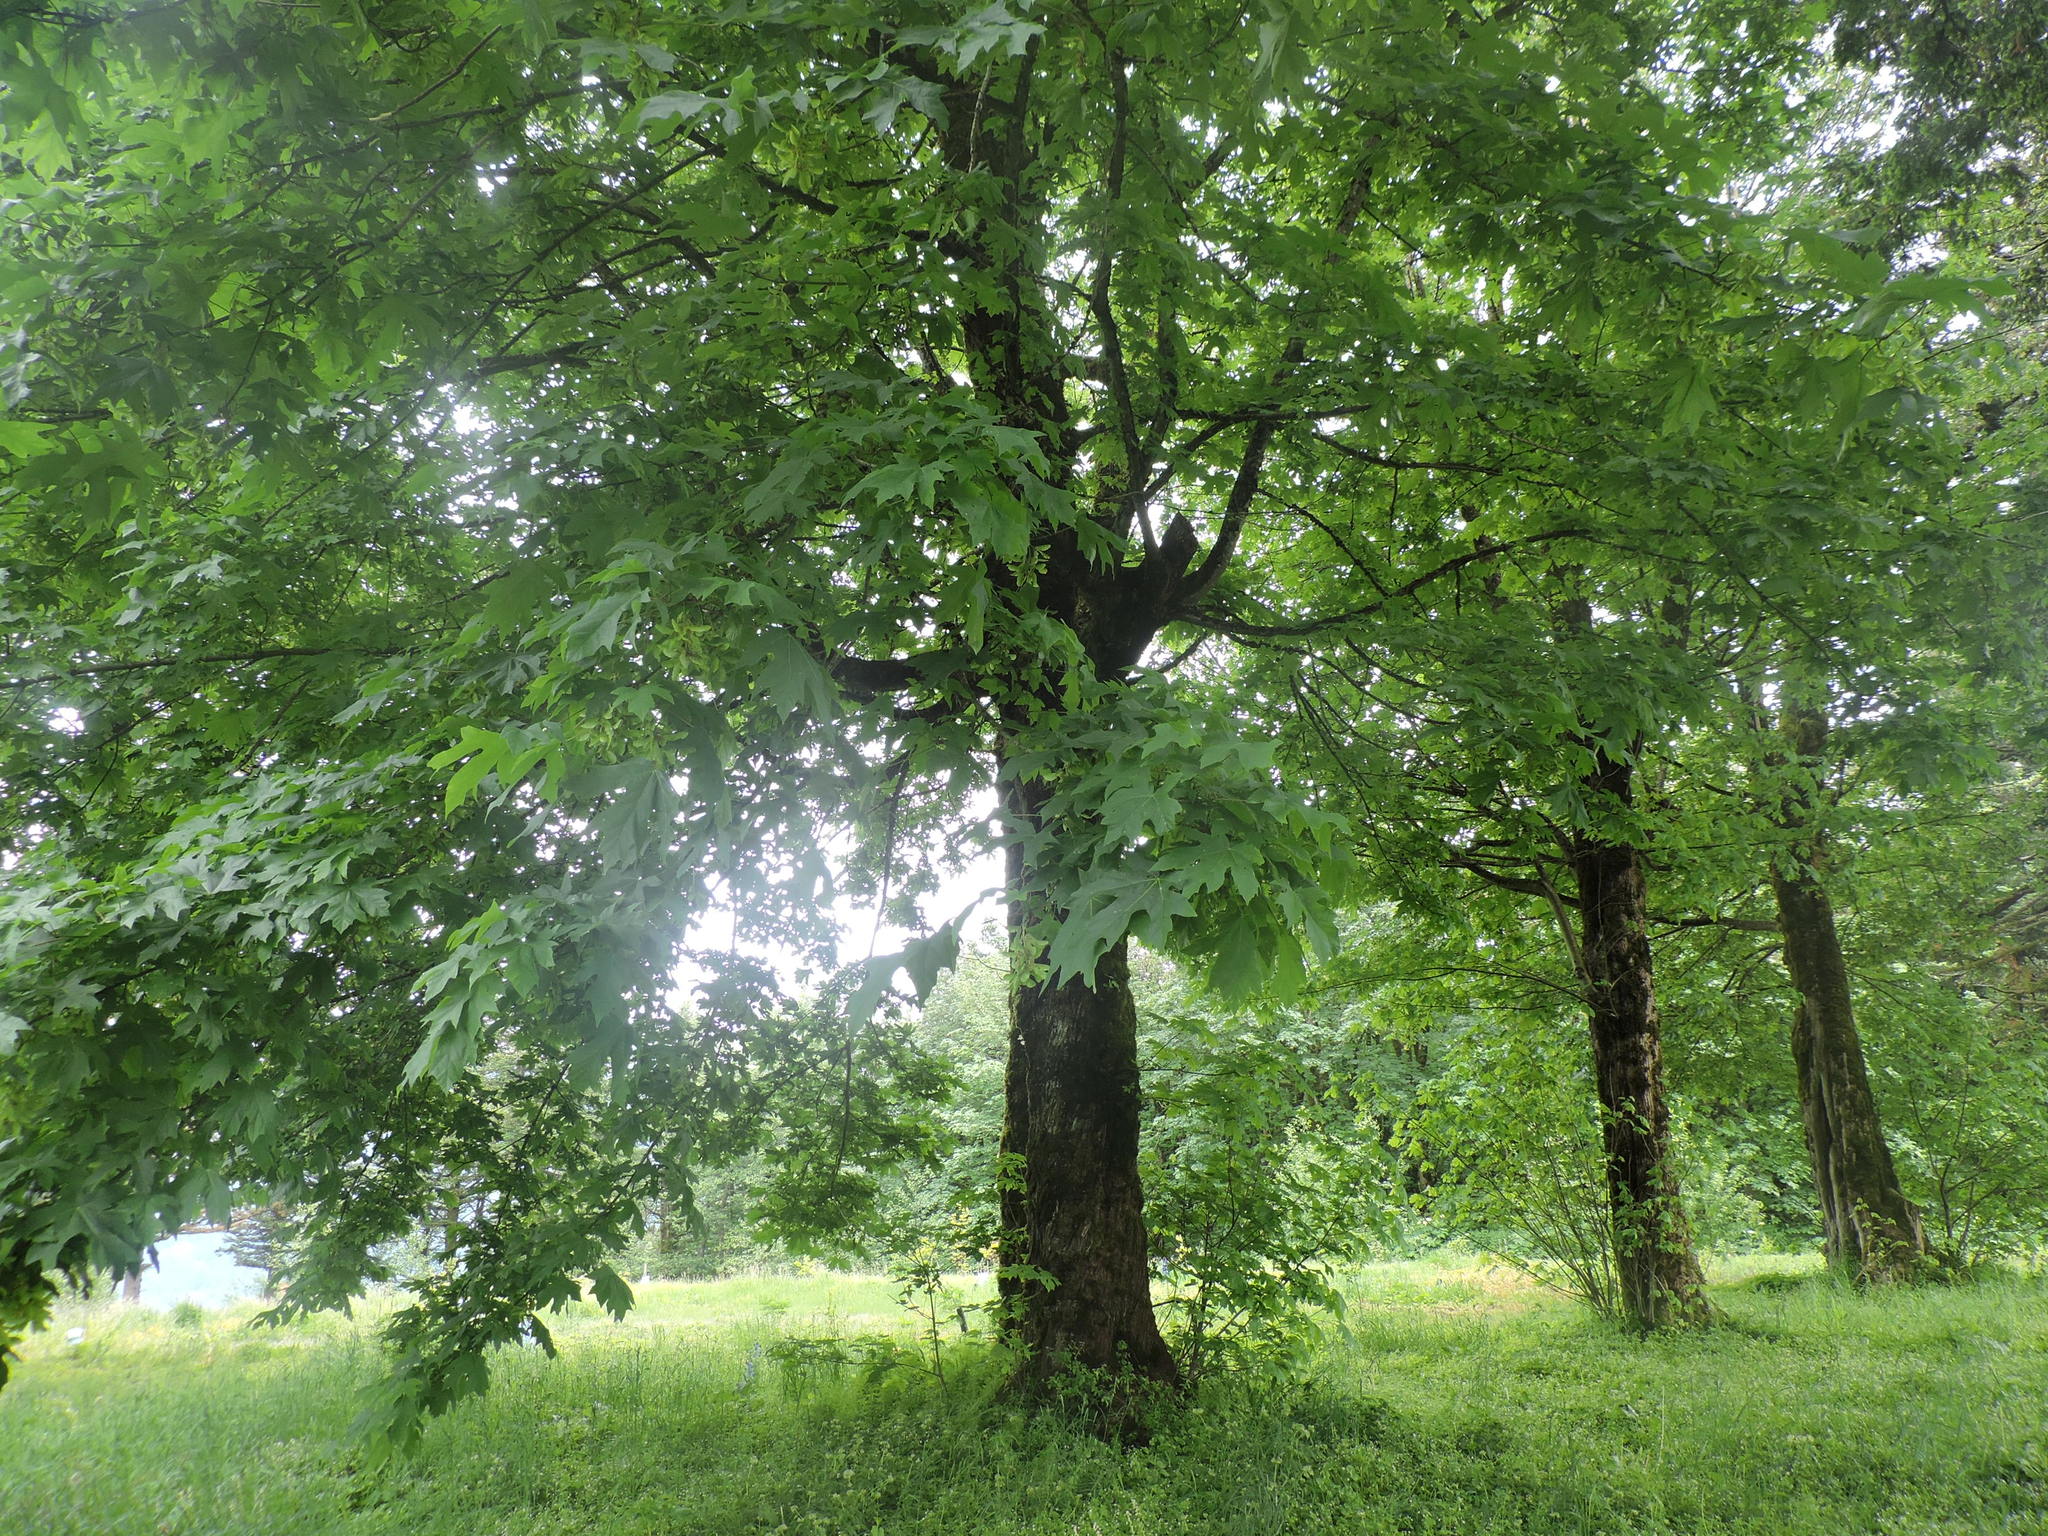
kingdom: Plantae
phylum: Tracheophyta
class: Magnoliopsida
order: Sapindales
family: Sapindaceae
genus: Acer
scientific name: Acer macrophyllum
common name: Oregon maple
